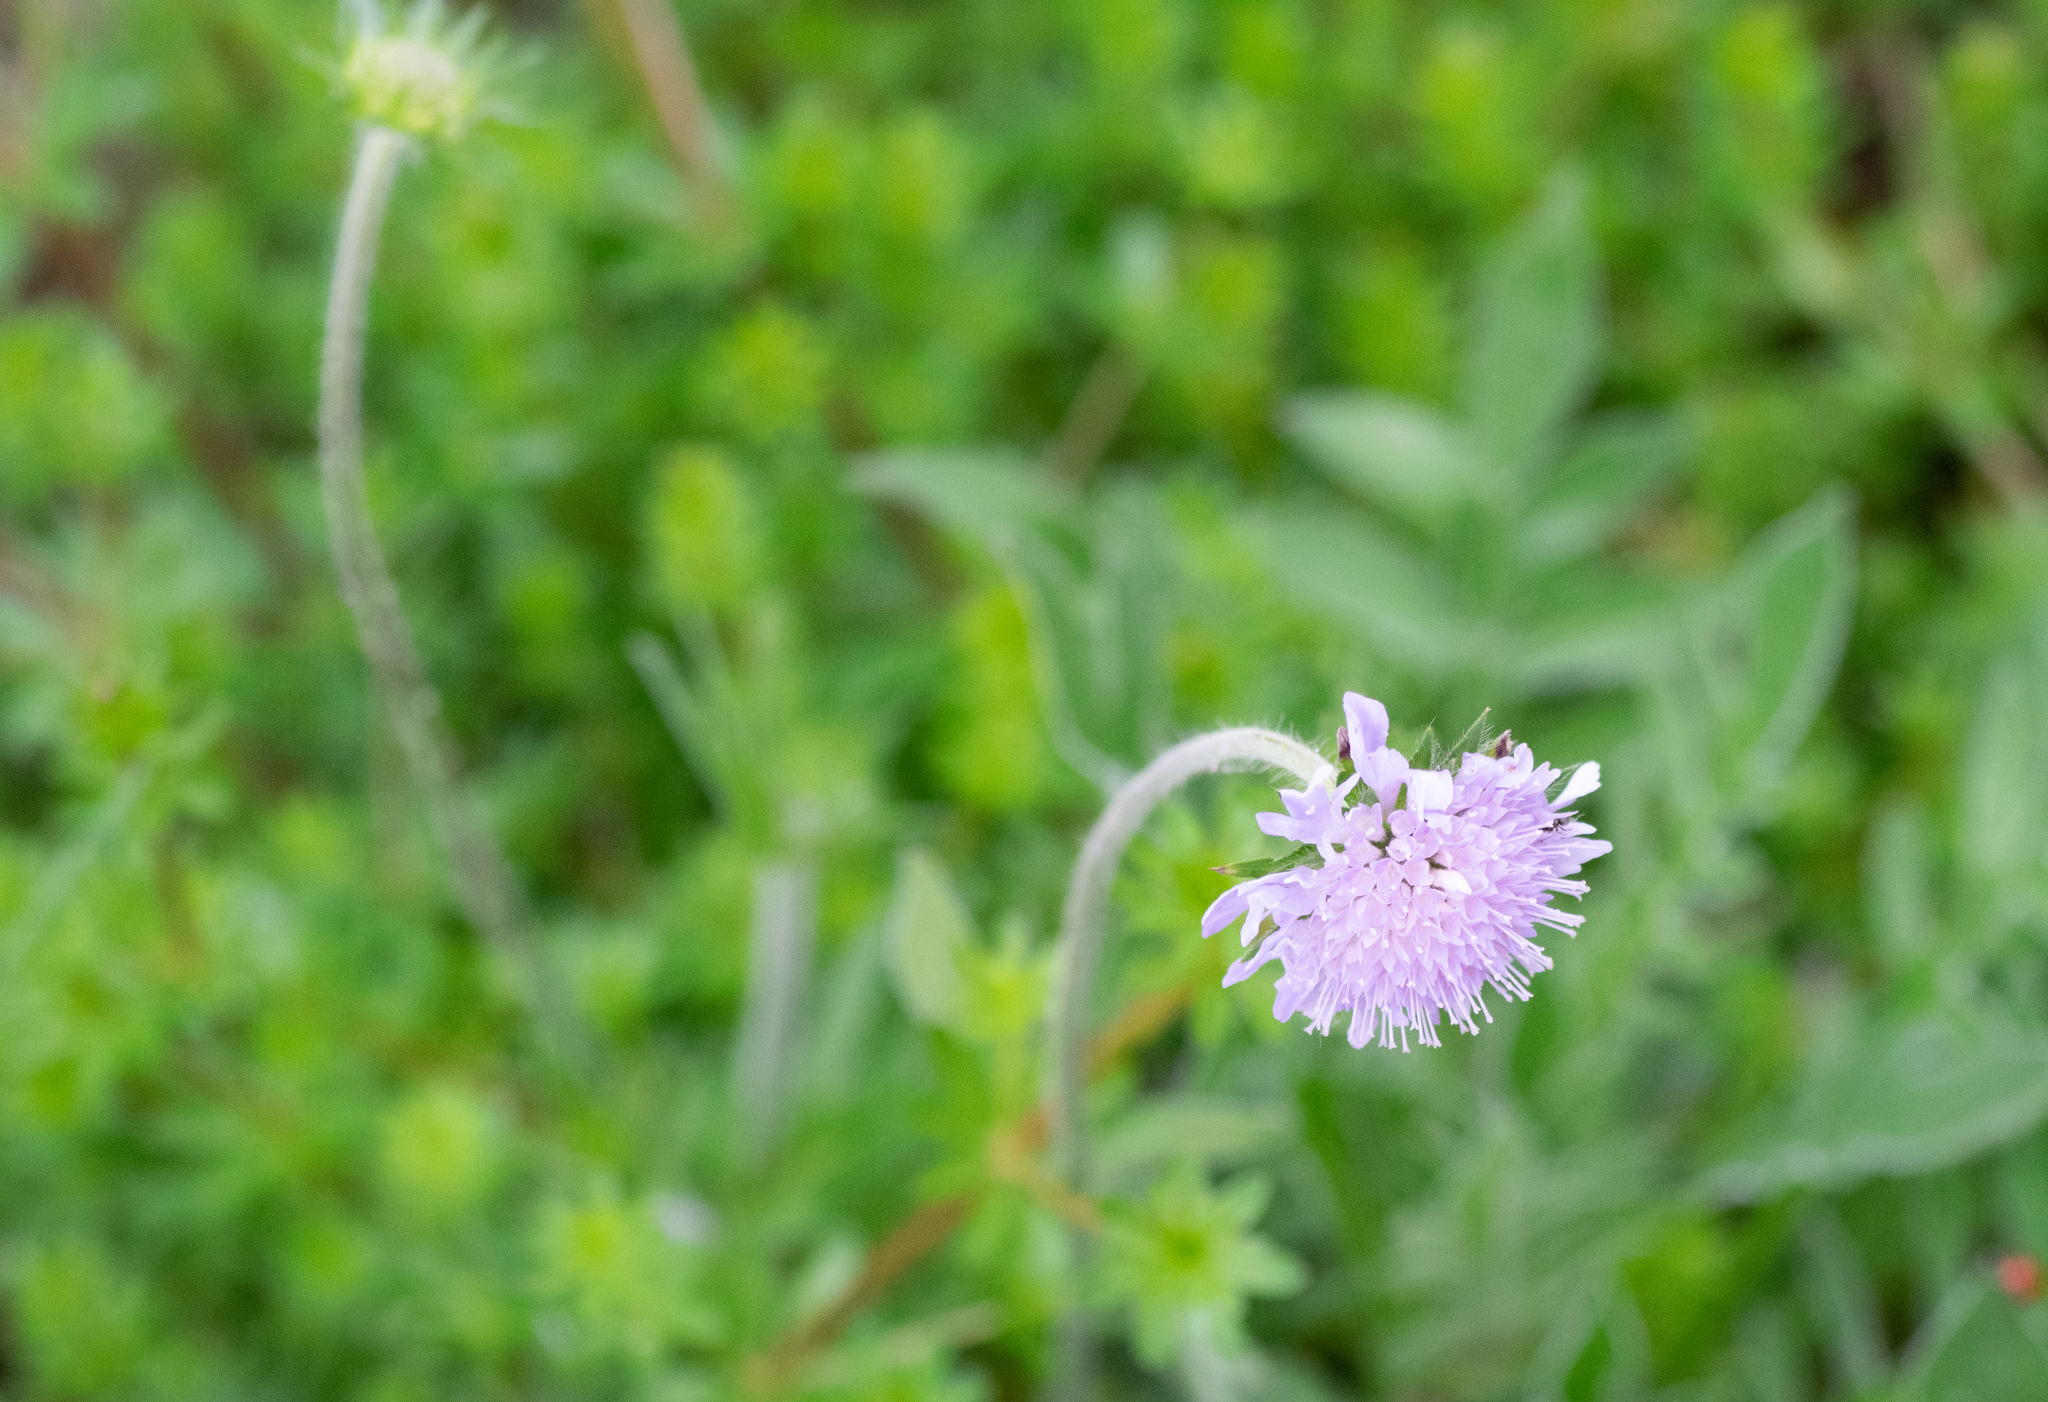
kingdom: Plantae
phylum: Tracheophyta
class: Magnoliopsida
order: Dipsacales
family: Caprifoliaceae
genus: Knautia
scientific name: Knautia arvensis
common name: Field scabiosa
